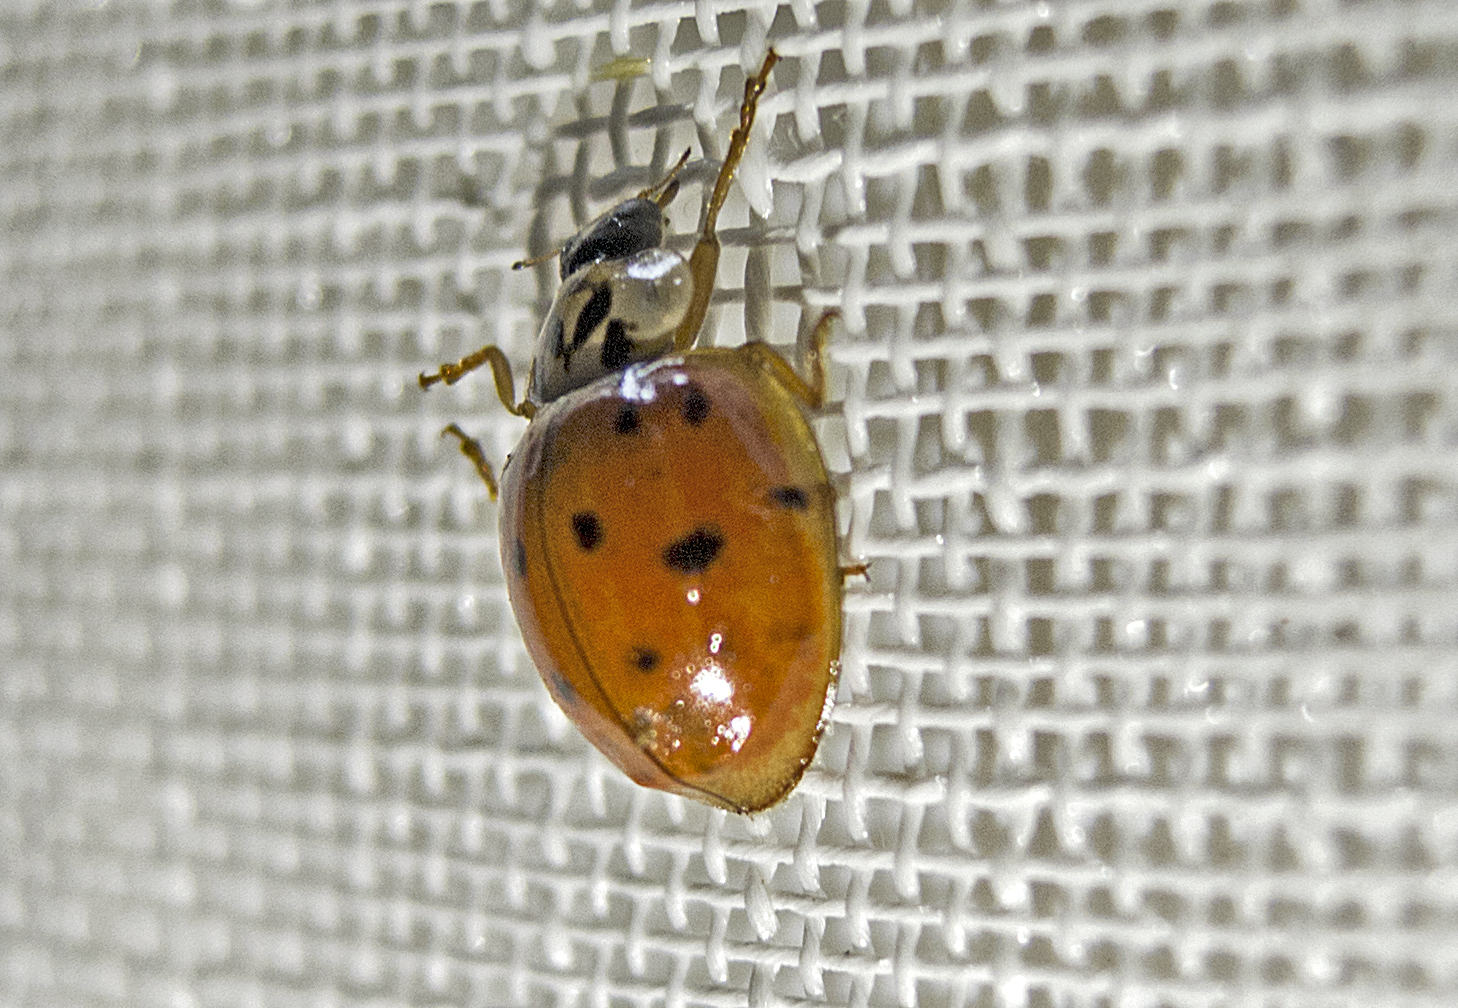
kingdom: Animalia
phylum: Arthropoda
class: Insecta
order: Coleoptera
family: Coccinellidae
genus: Harmonia
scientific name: Harmonia axyridis
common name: Harlequin ladybird
